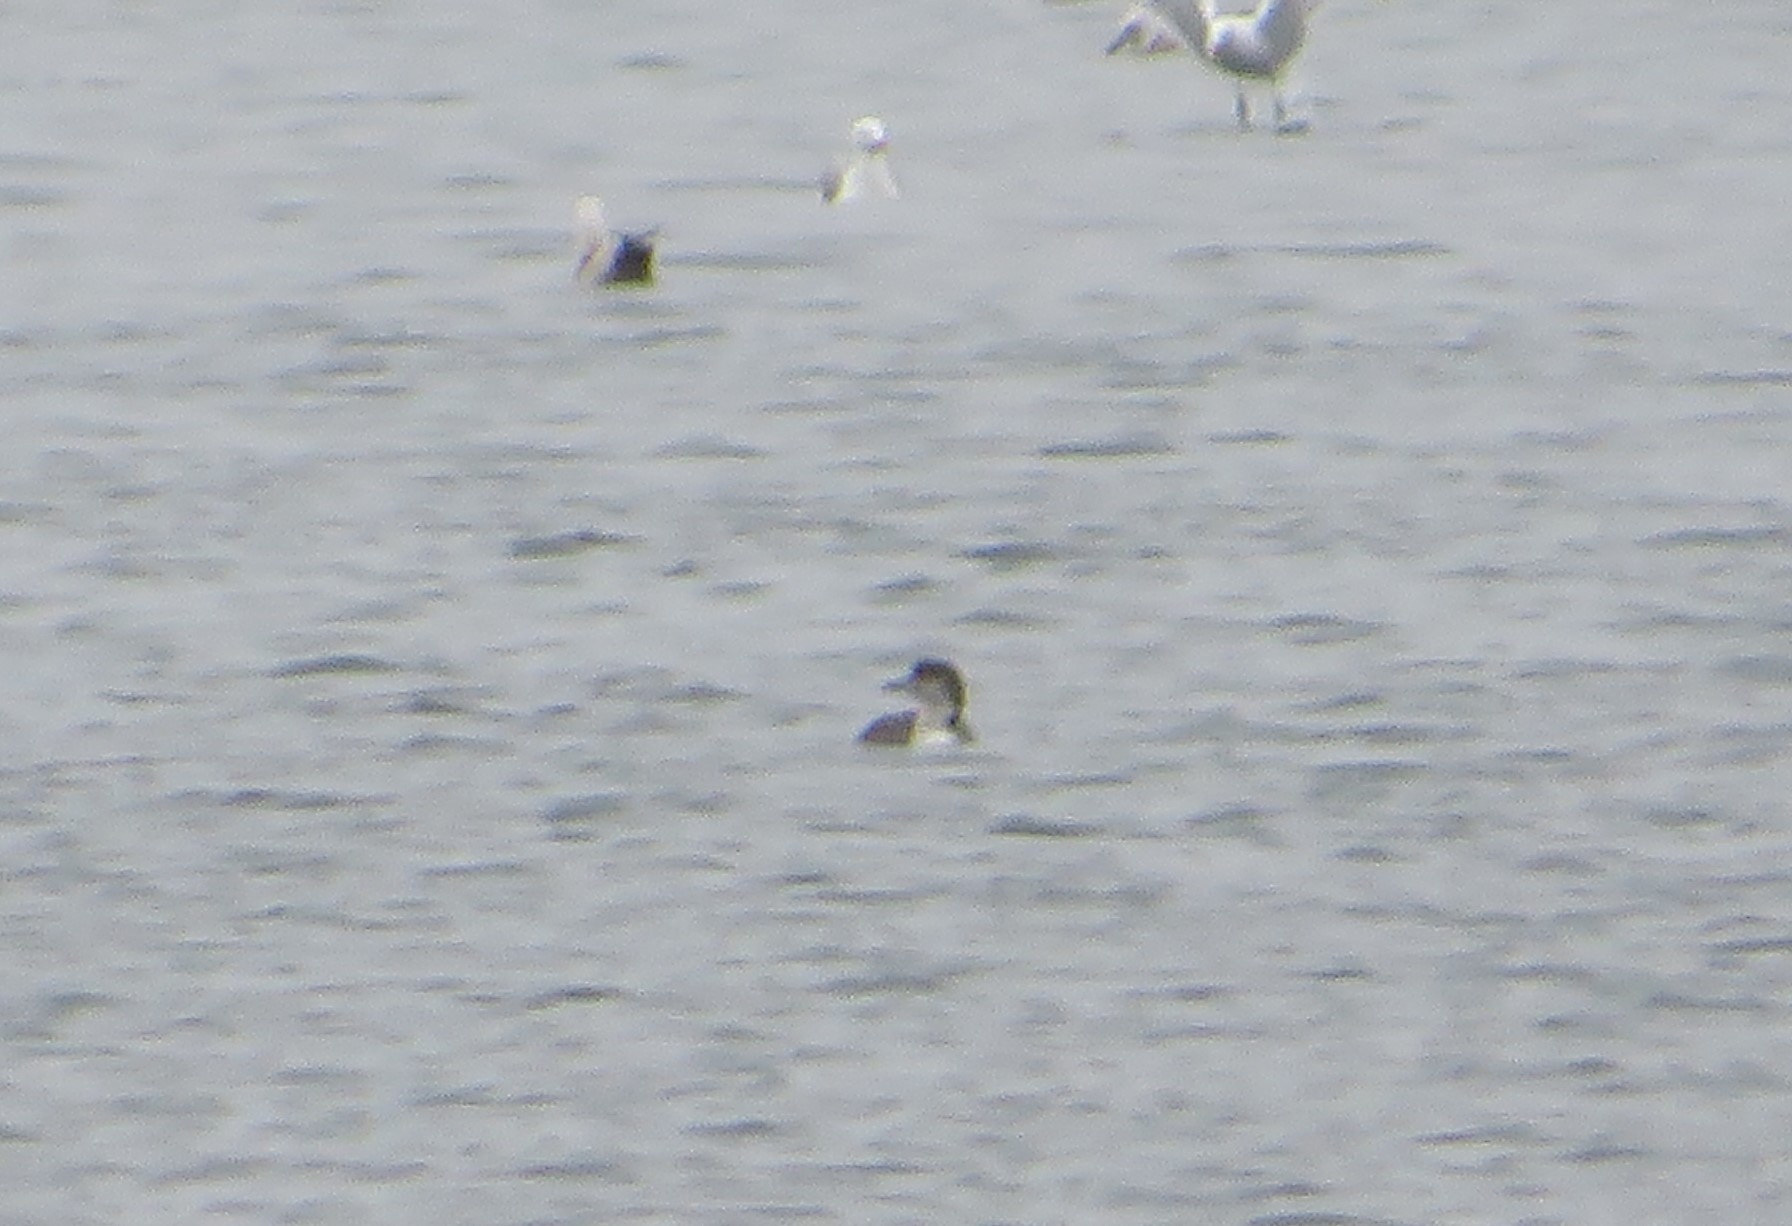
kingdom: Animalia
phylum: Chordata
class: Aves
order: Gaviiformes
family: Gaviidae
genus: Gavia
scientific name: Gavia immer
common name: Common loon
